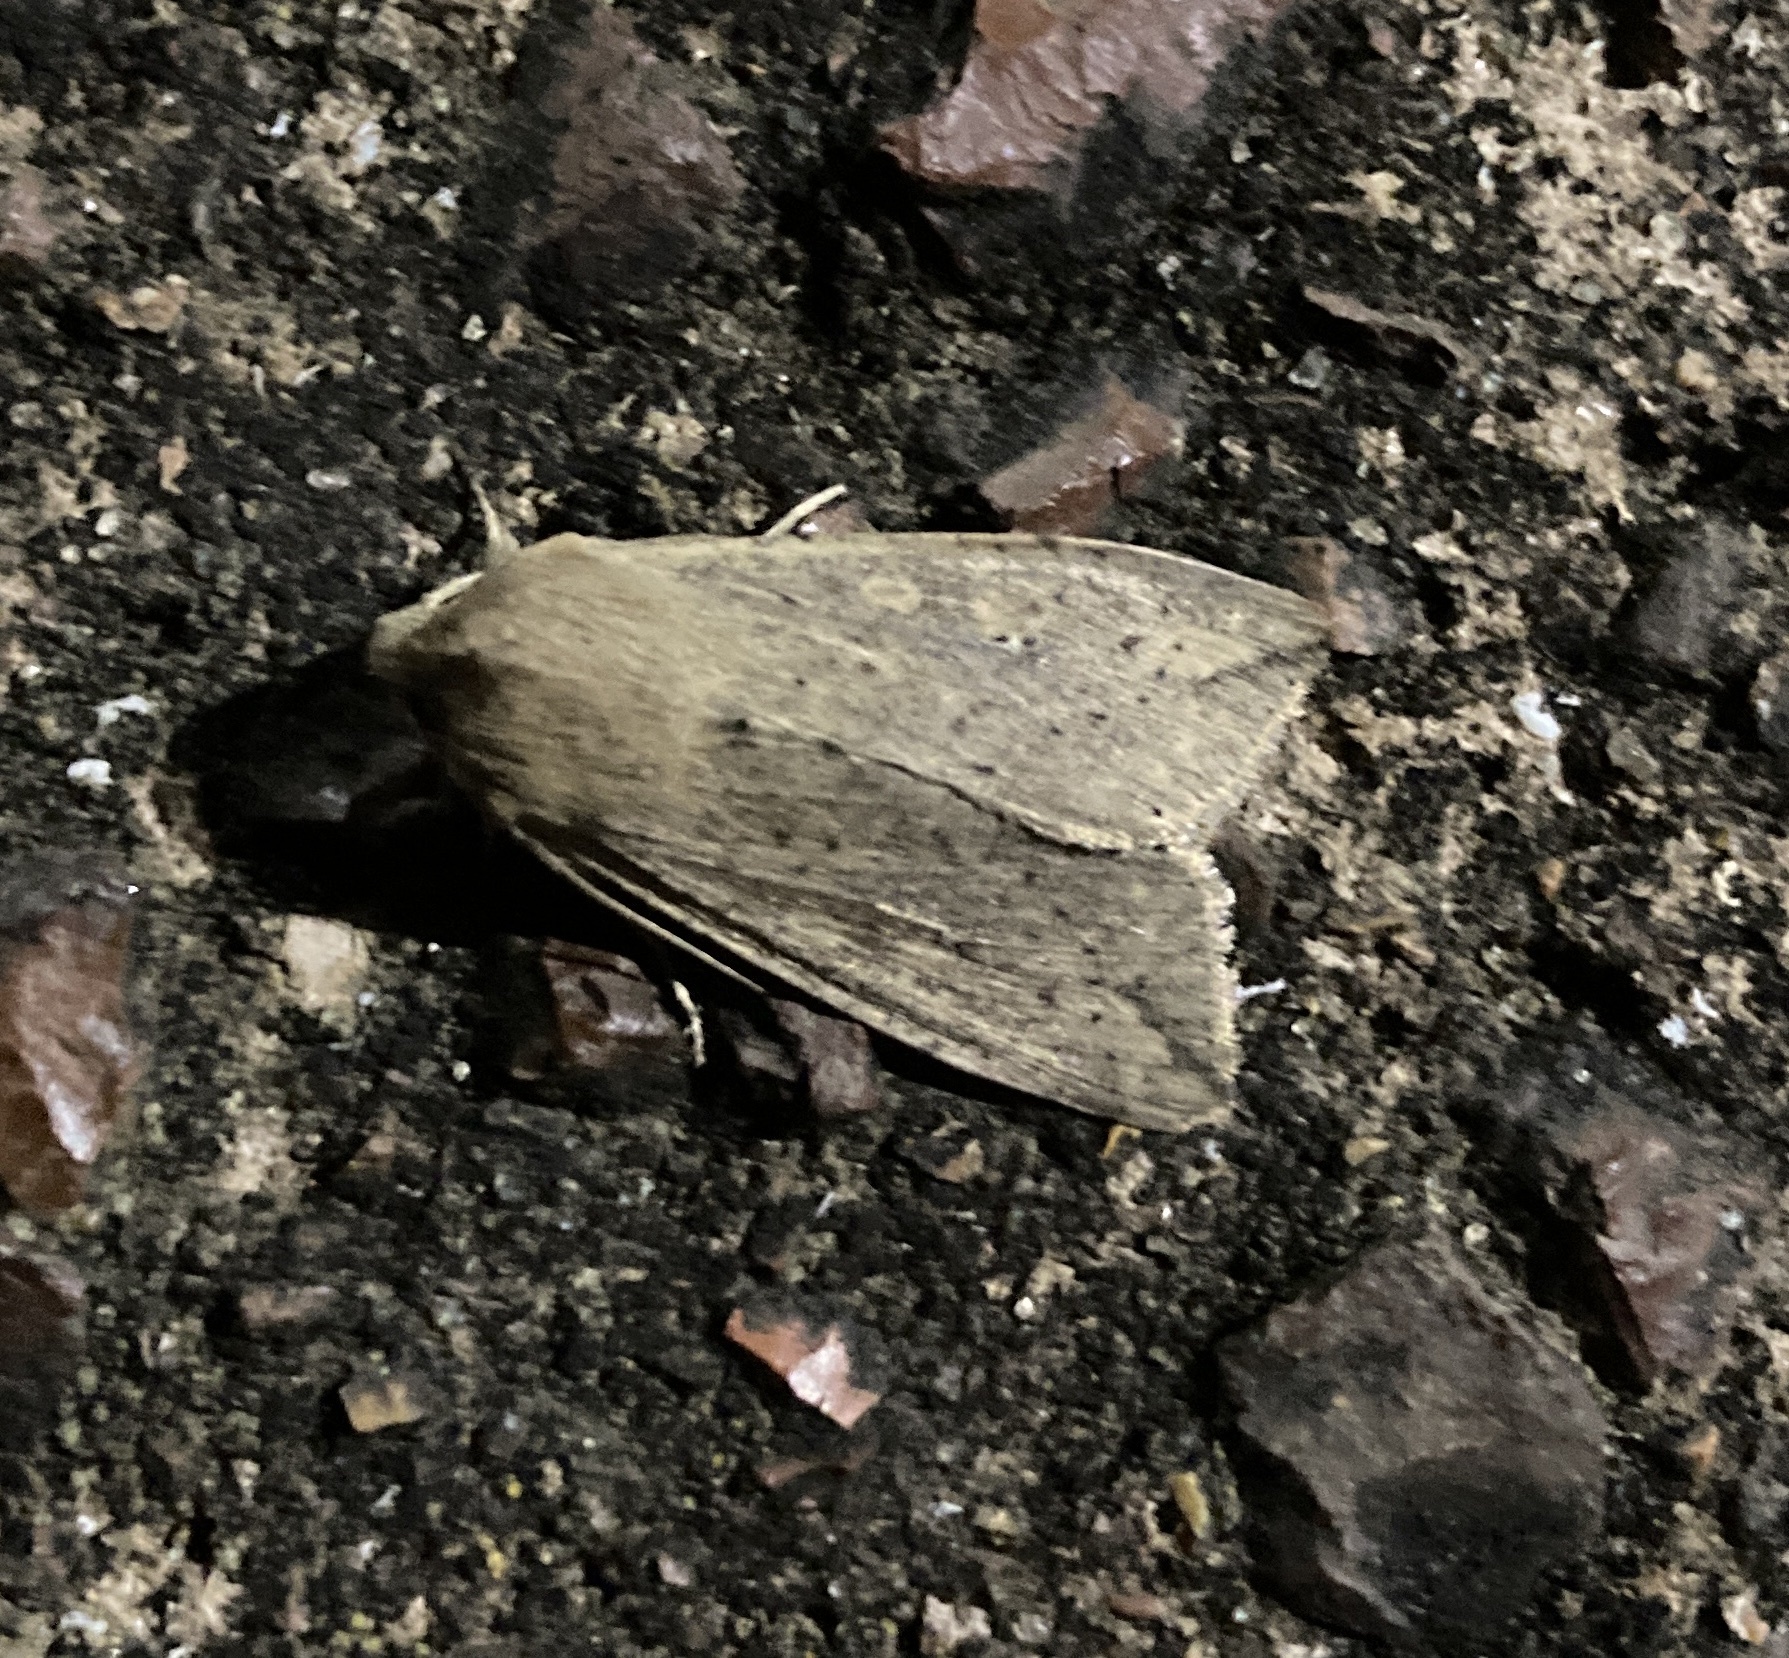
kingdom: Animalia
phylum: Arthropoda
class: Insecta
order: Lepidoptera
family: Noctuidae
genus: Mythimna
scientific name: Mythimna separata
